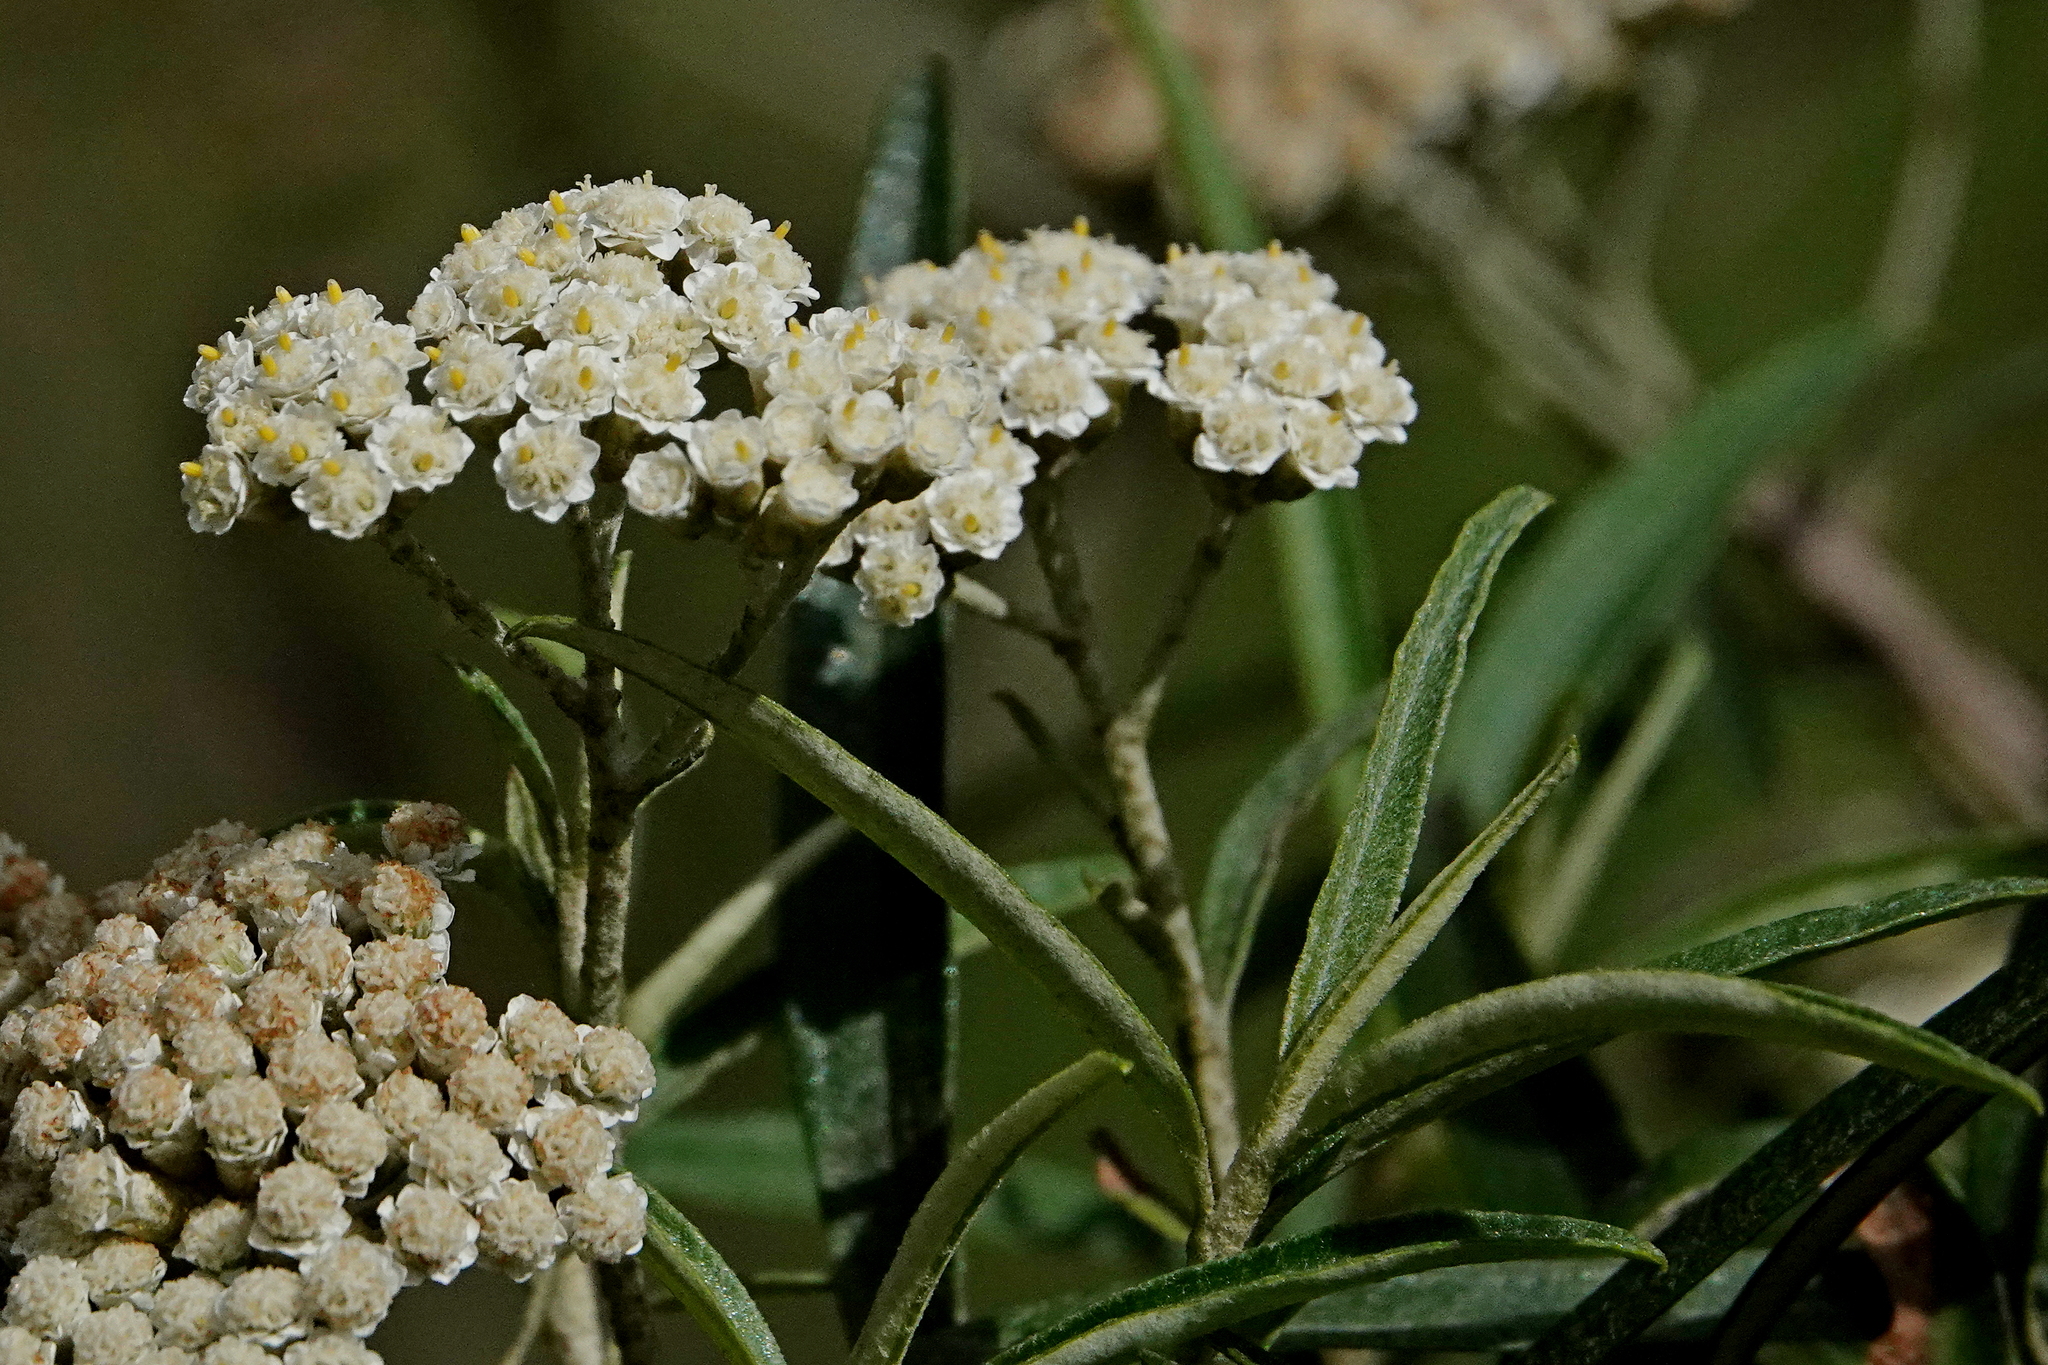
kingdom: Plantae
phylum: Tracheophyta
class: Magnoliopsida
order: Asterales
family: Asteraceae
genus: Ozothamnus
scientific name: Ozothamnus argophyllus
